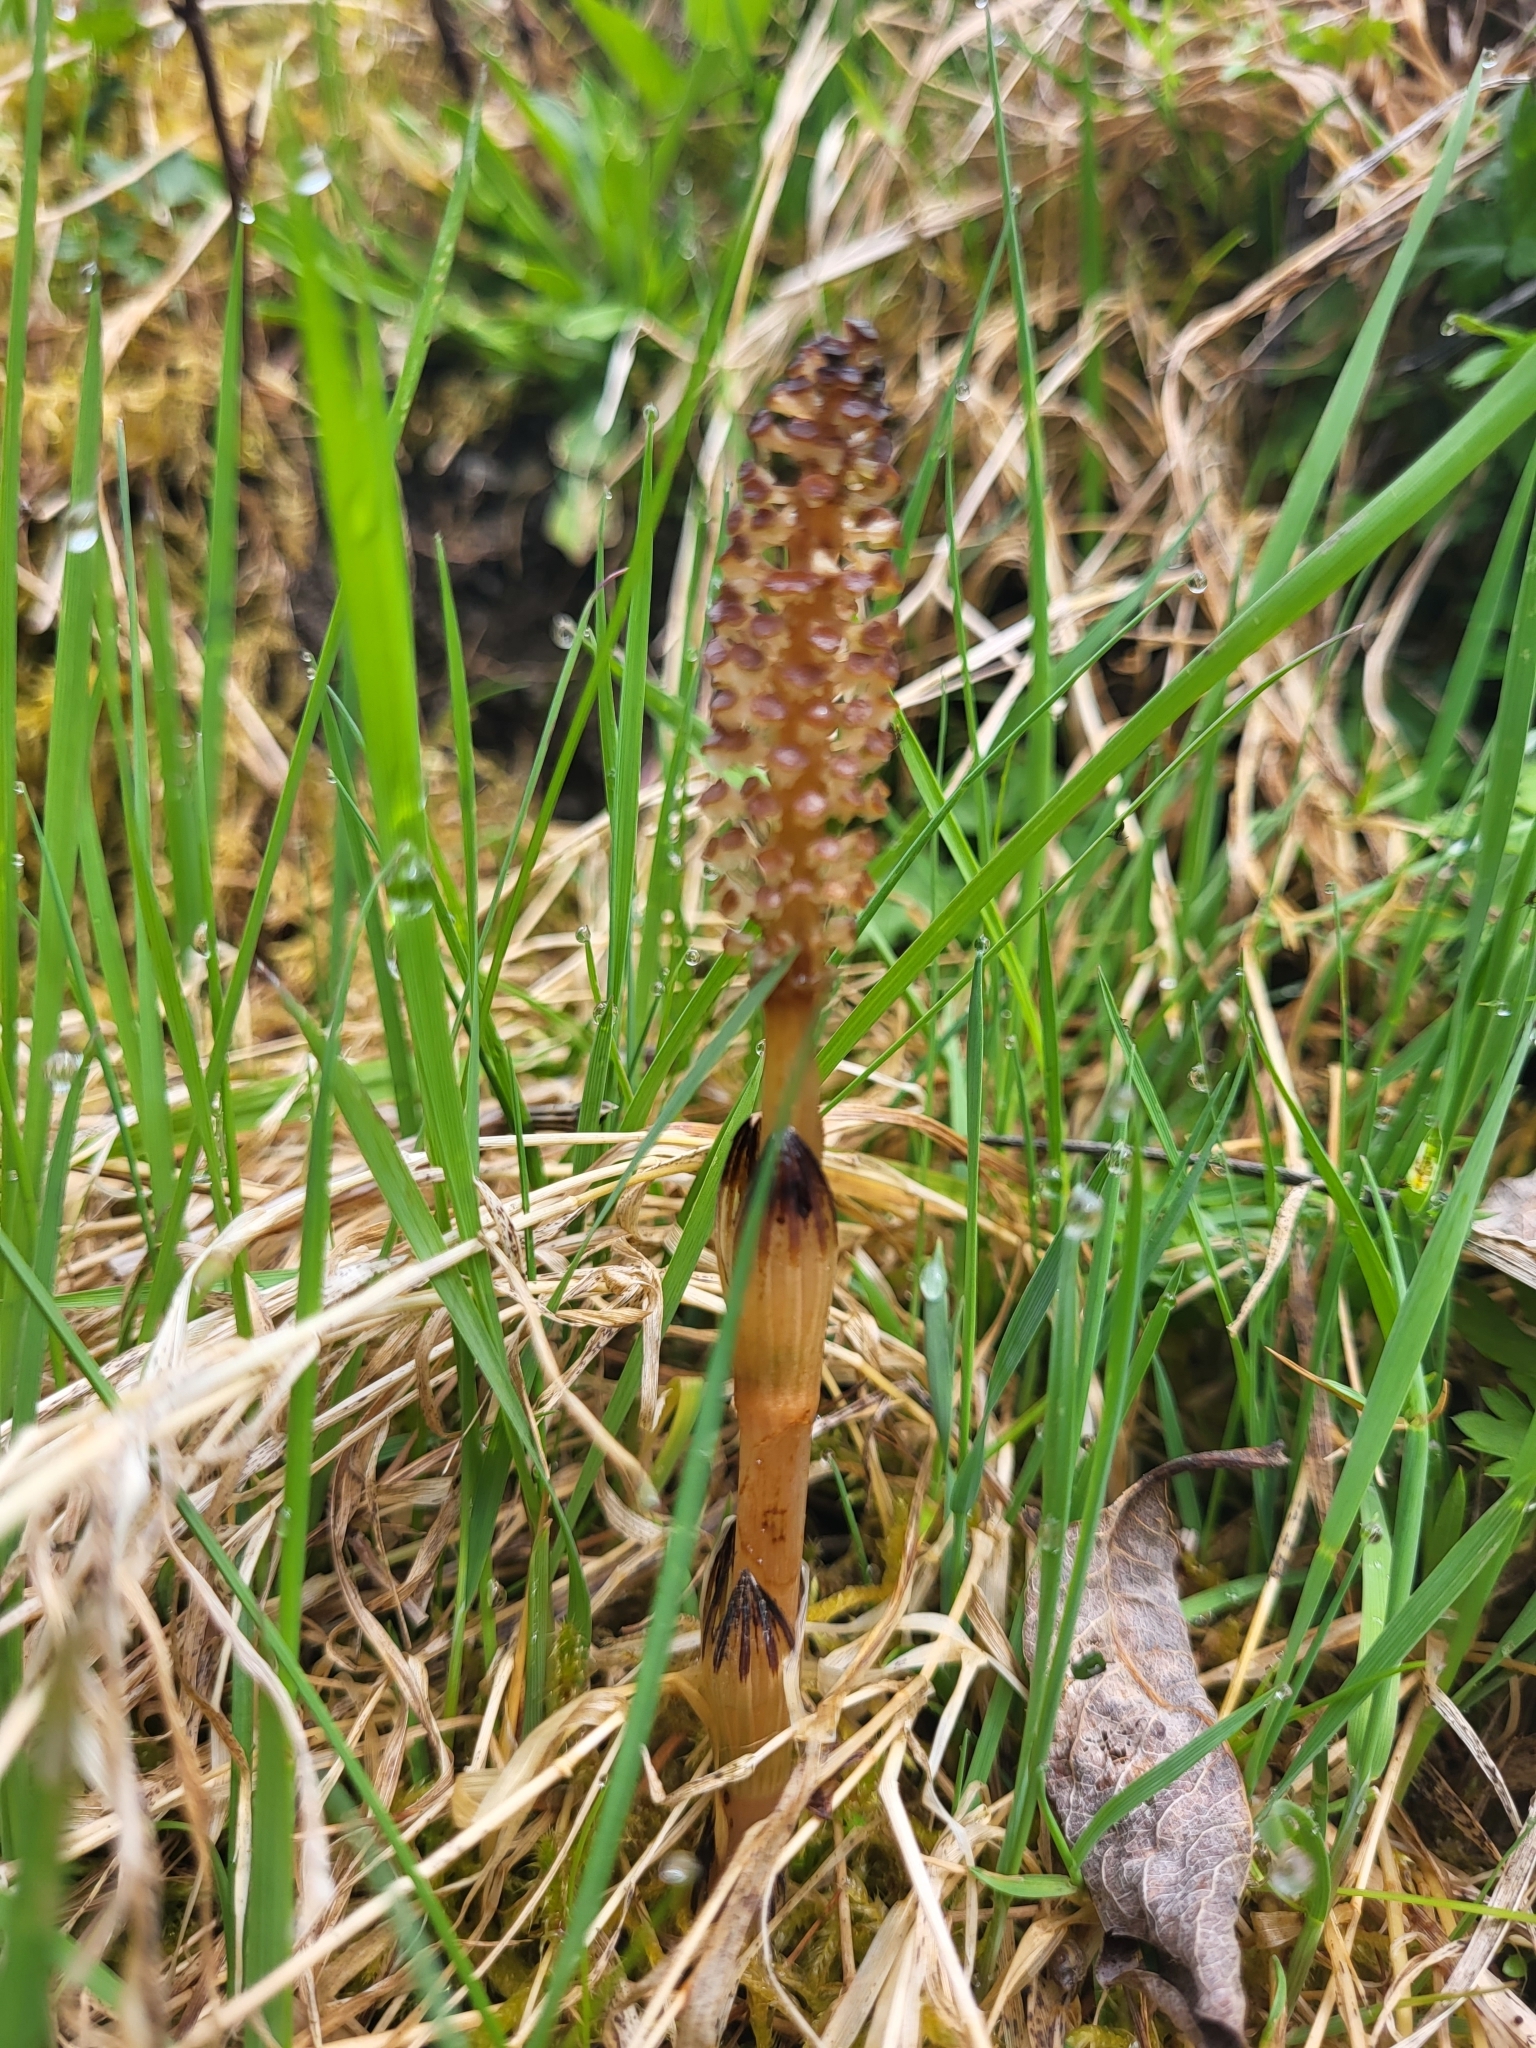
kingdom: Plantae
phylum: Tracheophyta
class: Polypodiopsida
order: Equisetales
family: Equisetaceae
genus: Equisetum
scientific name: Equisetum arvense
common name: Field horsetail
